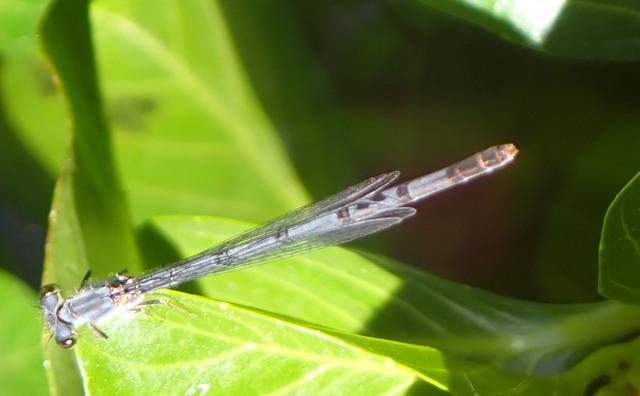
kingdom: Animalia
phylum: Arthropoda
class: Insecta
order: Odonata
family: Coenagrionidae
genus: Ischnura
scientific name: Ischnura posita
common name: Fragile forktail
